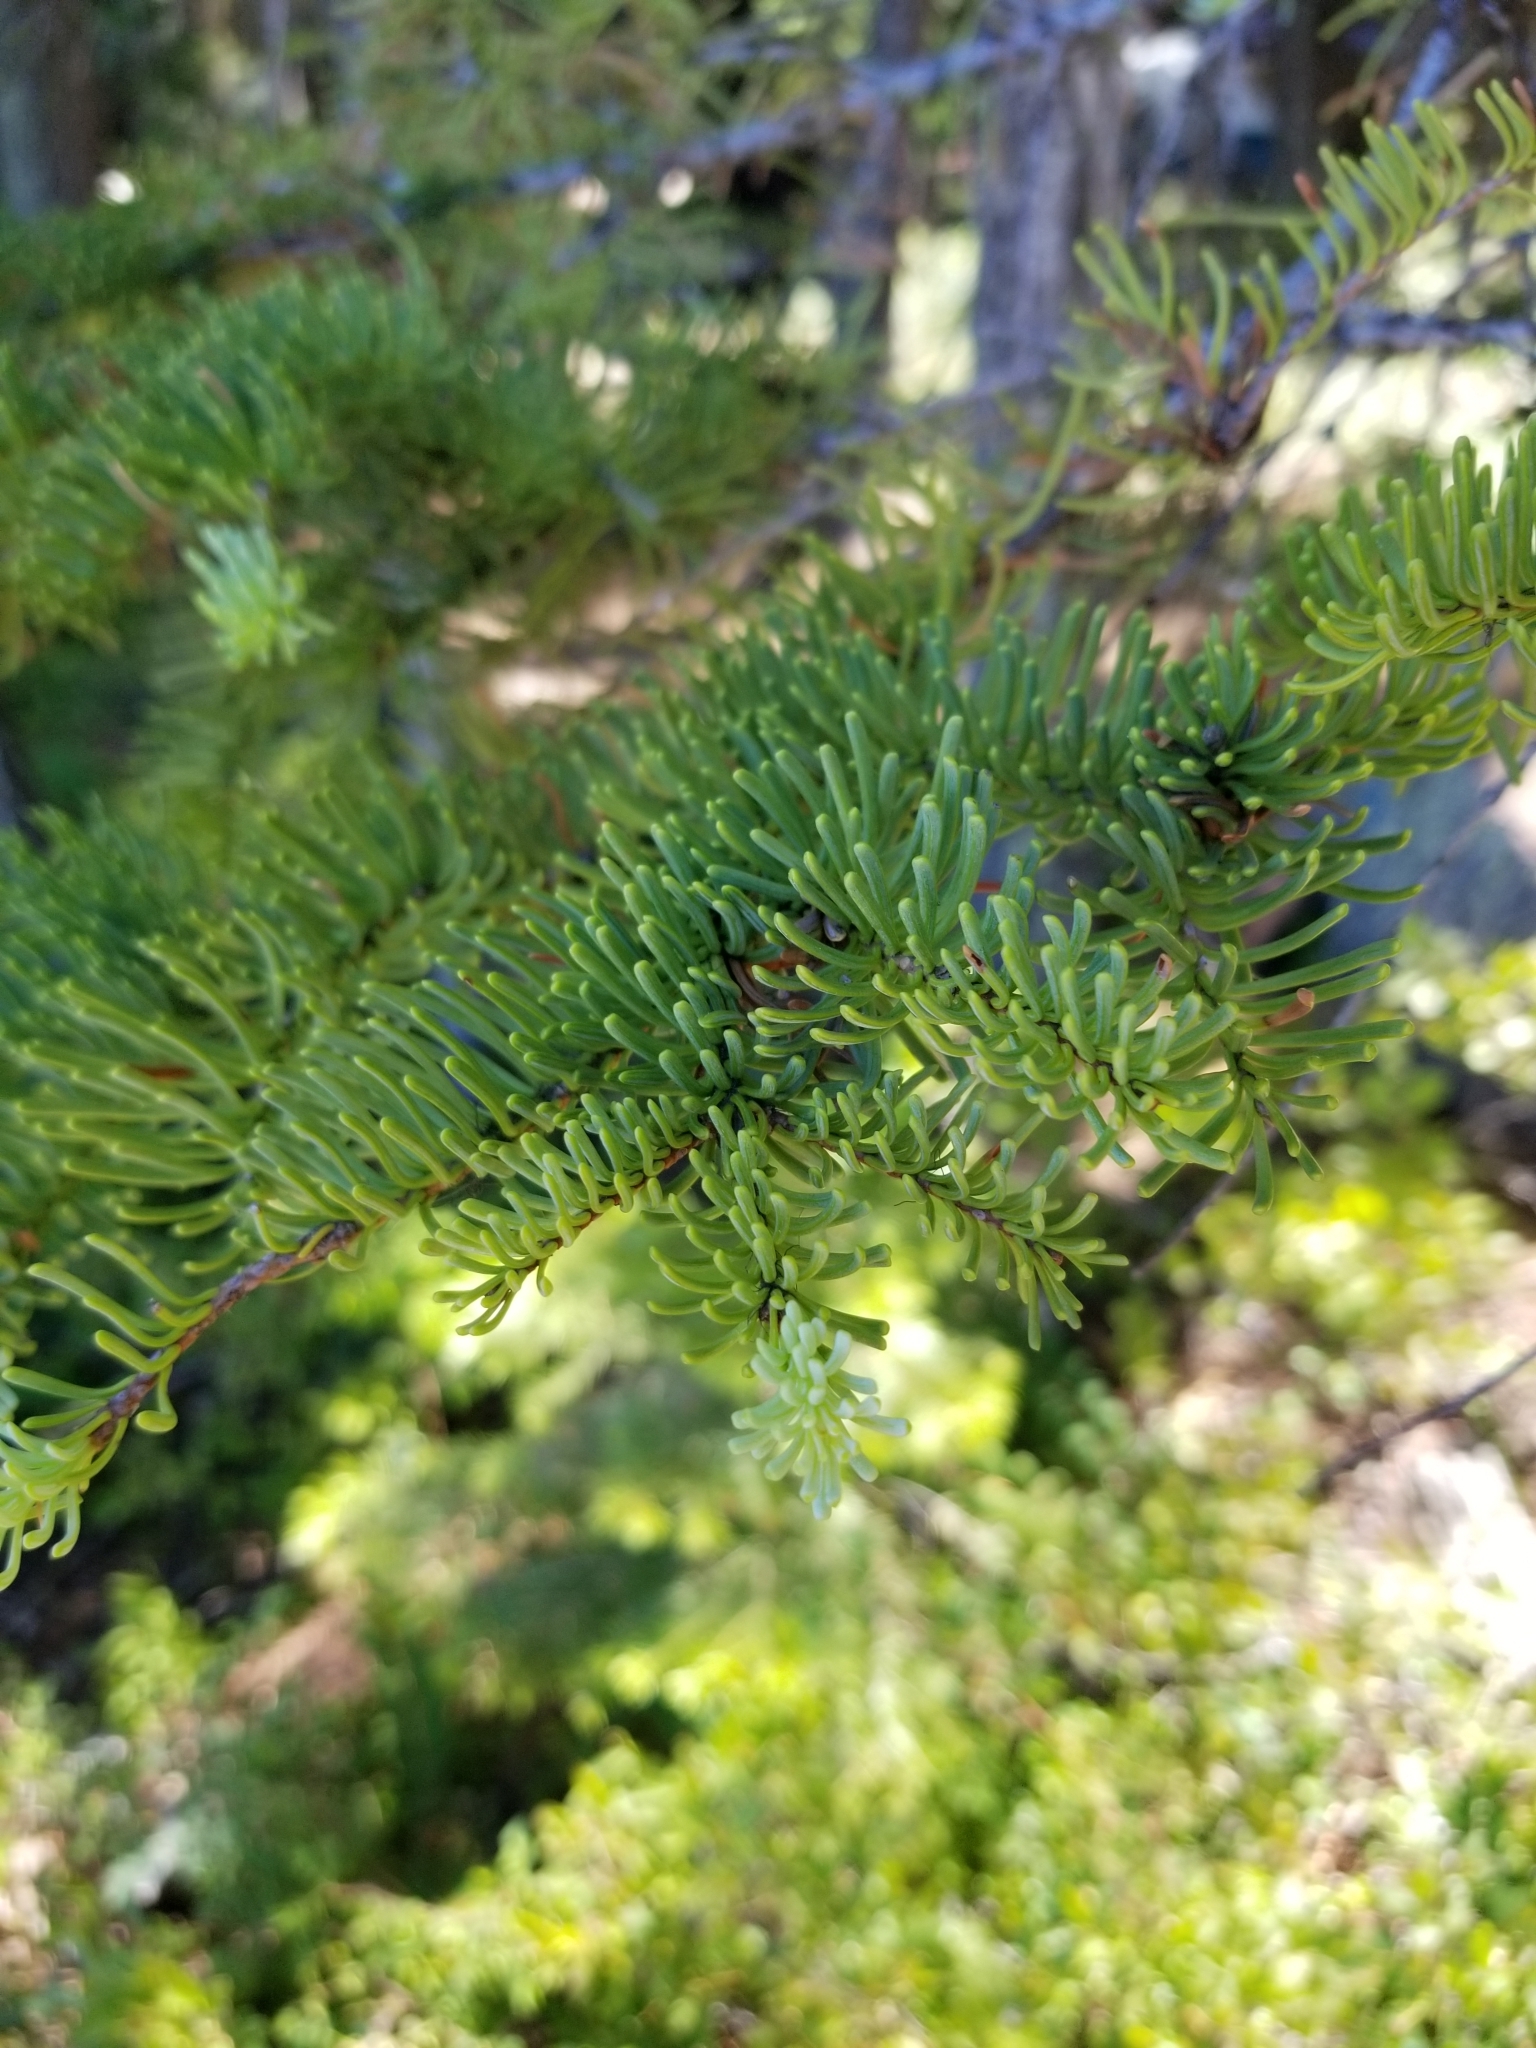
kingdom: Plantae
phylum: Tracheophyta
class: Pinopsida
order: Pinales
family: Pinaceae
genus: Abies
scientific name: Abies magnifica bis
